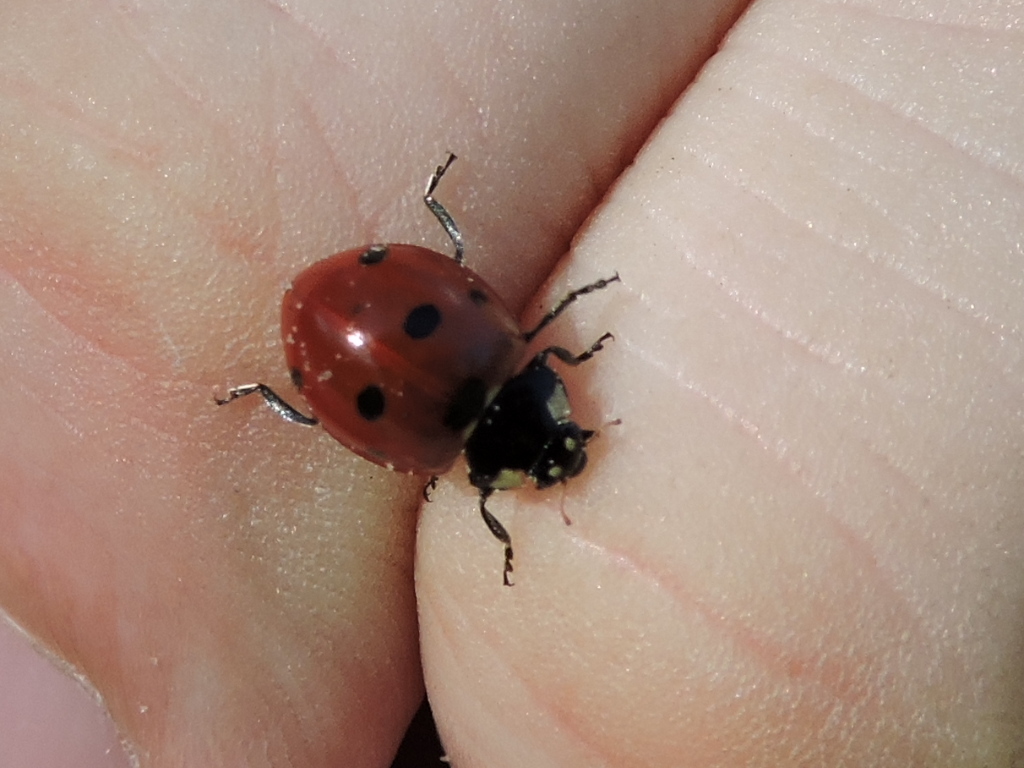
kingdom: Animalia
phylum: Arthropoda
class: Insecta
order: Coleoptera
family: Coccinellidae
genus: Coccinella
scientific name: Coccinella septempunctata
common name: Sevenspotted lady beetle
